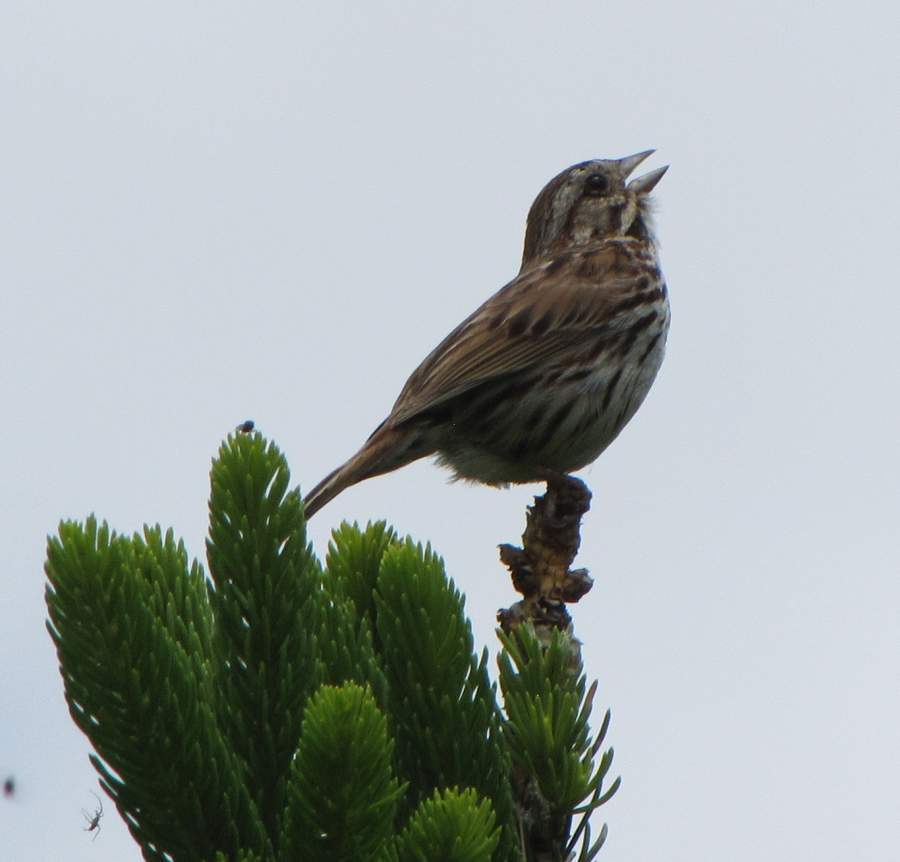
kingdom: Animalia
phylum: Chordata
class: Aves
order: Passeriformes
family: Passerellidae
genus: Melospiza
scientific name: Melospiza melodia
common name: Song sparrow
